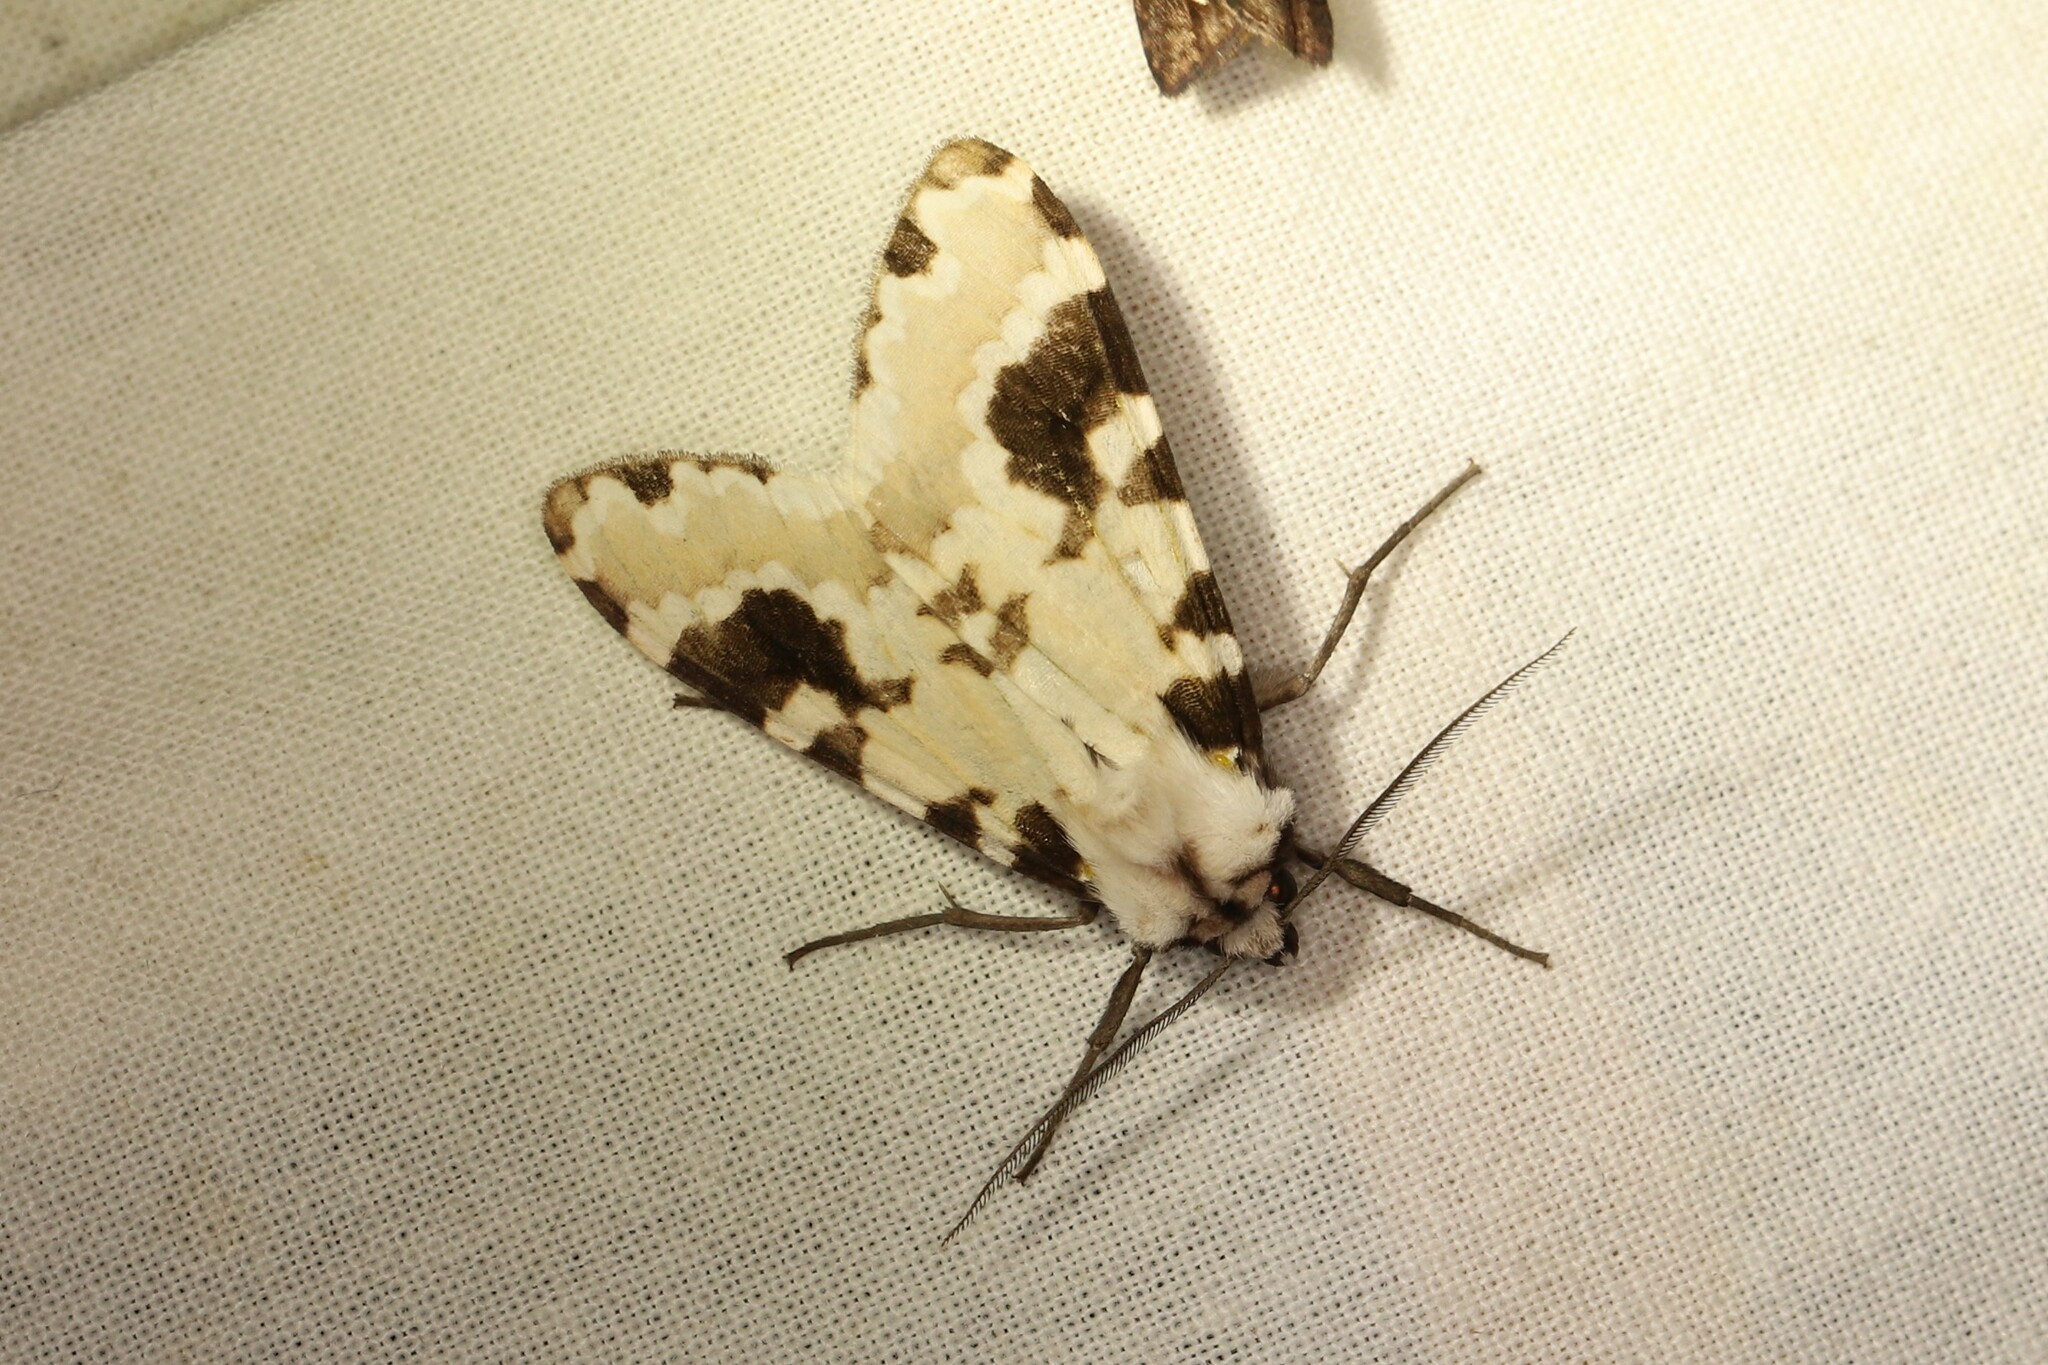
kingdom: Animalia
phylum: Arthropoda
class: Insecta
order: Lepidoptera
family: Erebidae
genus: Elysius
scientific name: Elysius
